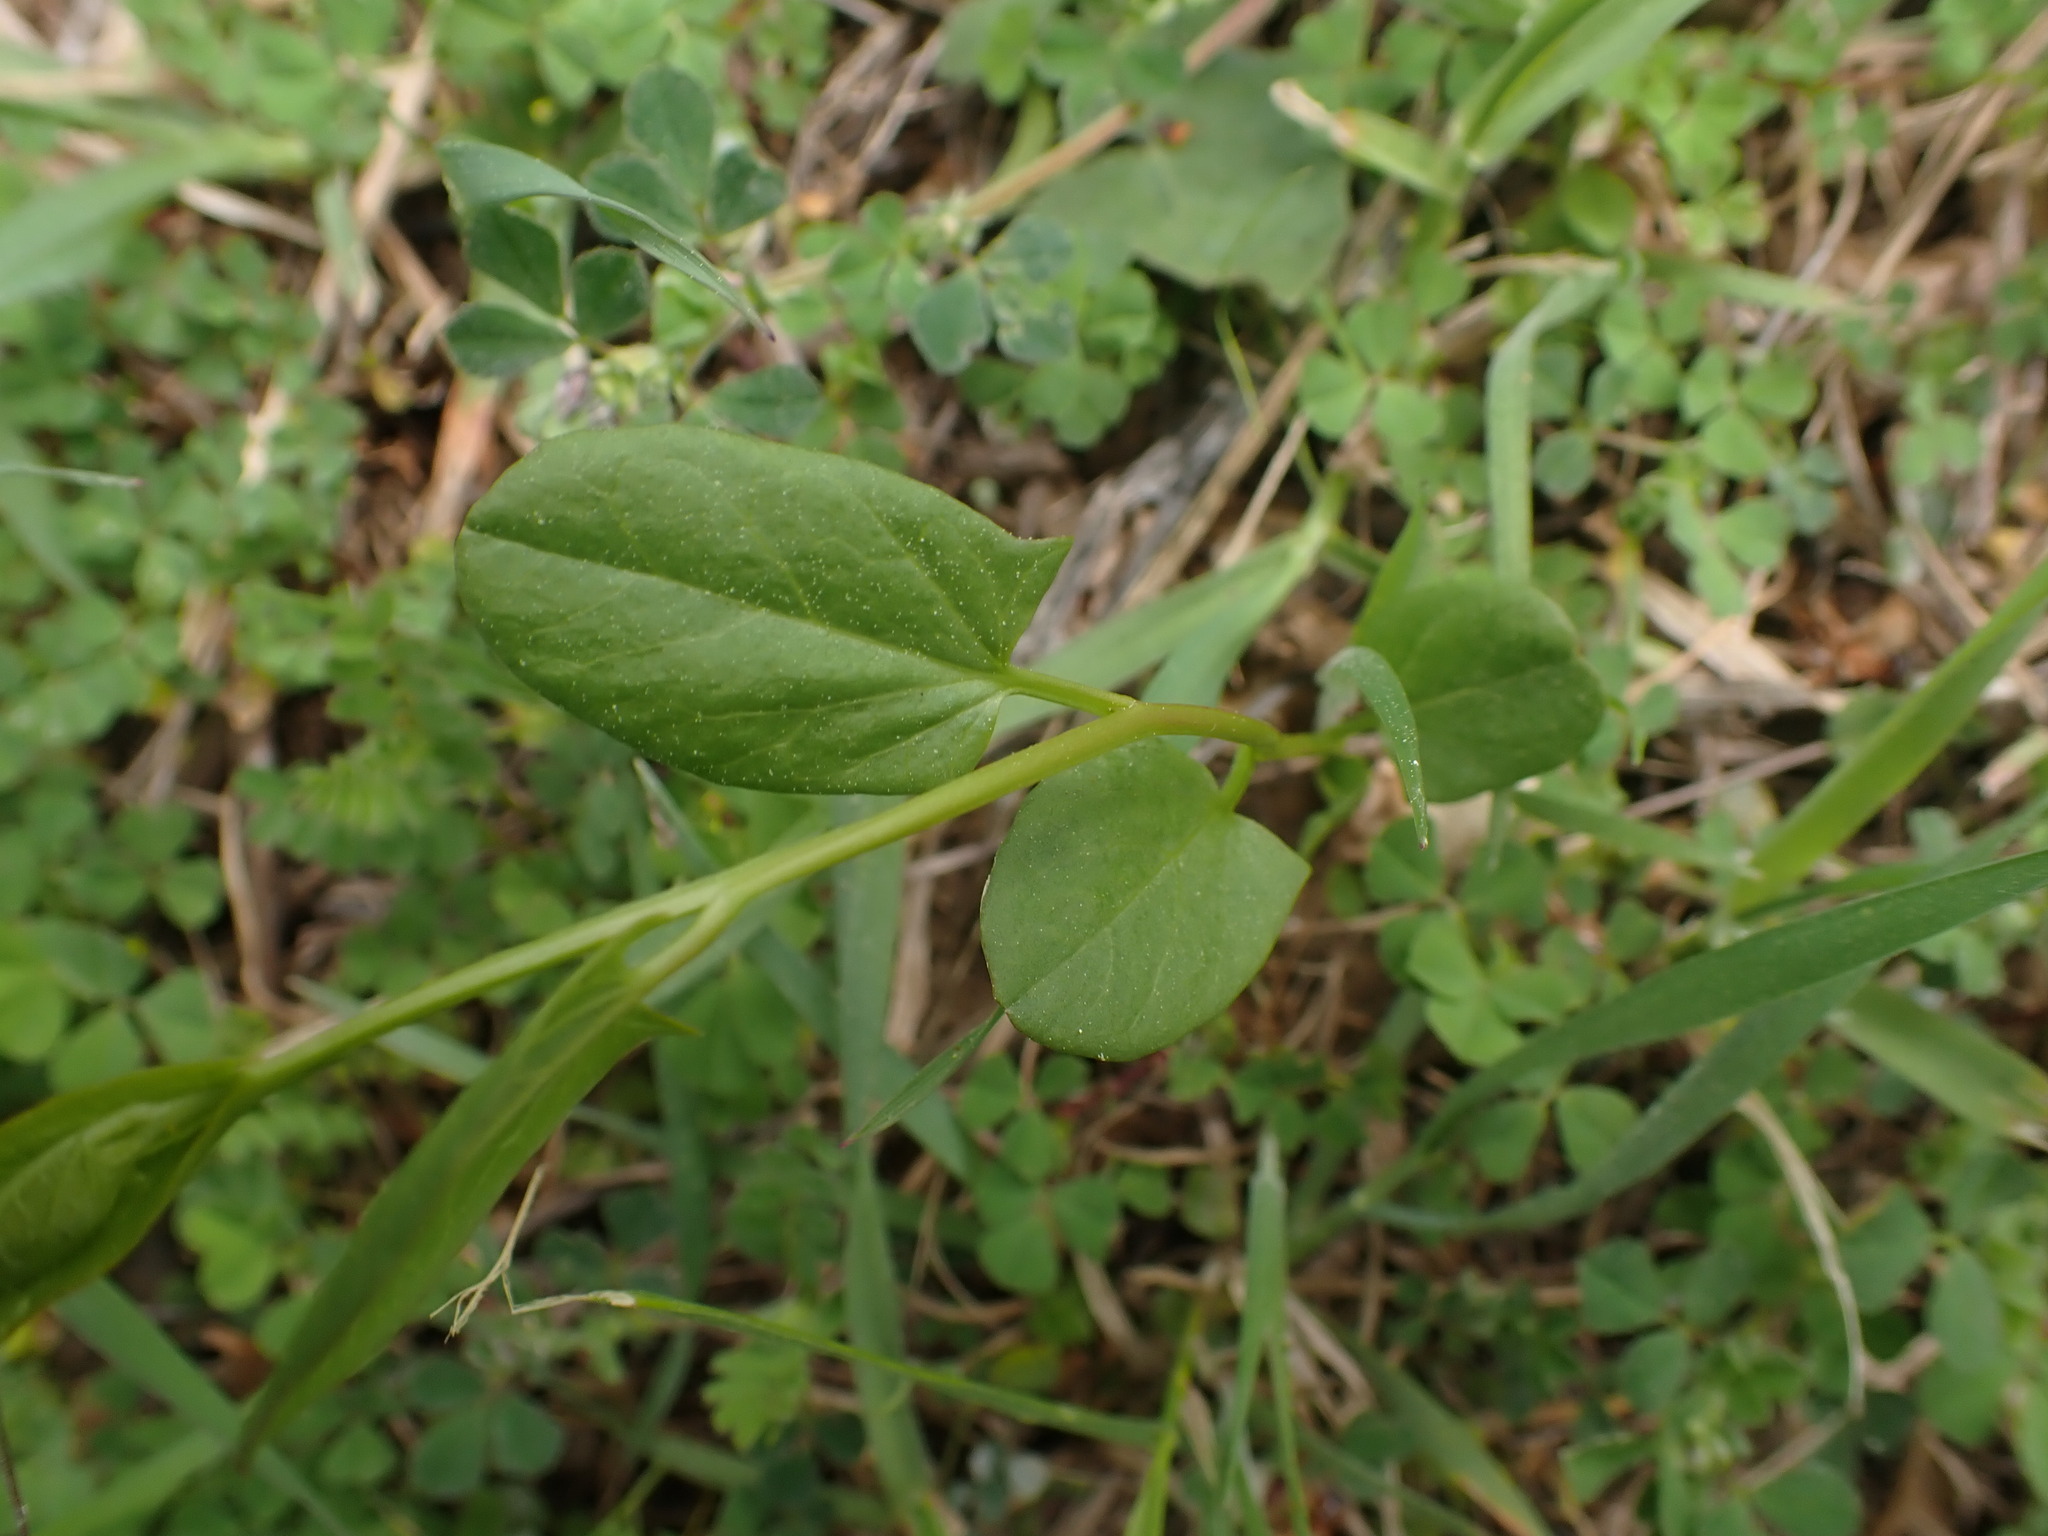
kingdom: Plantae
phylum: Tracheophyta
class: Magnoliopsida
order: Solanales
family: Convolvulaceae
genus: Convolvulus
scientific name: Convolvulus arvensis
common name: Field bindweed
